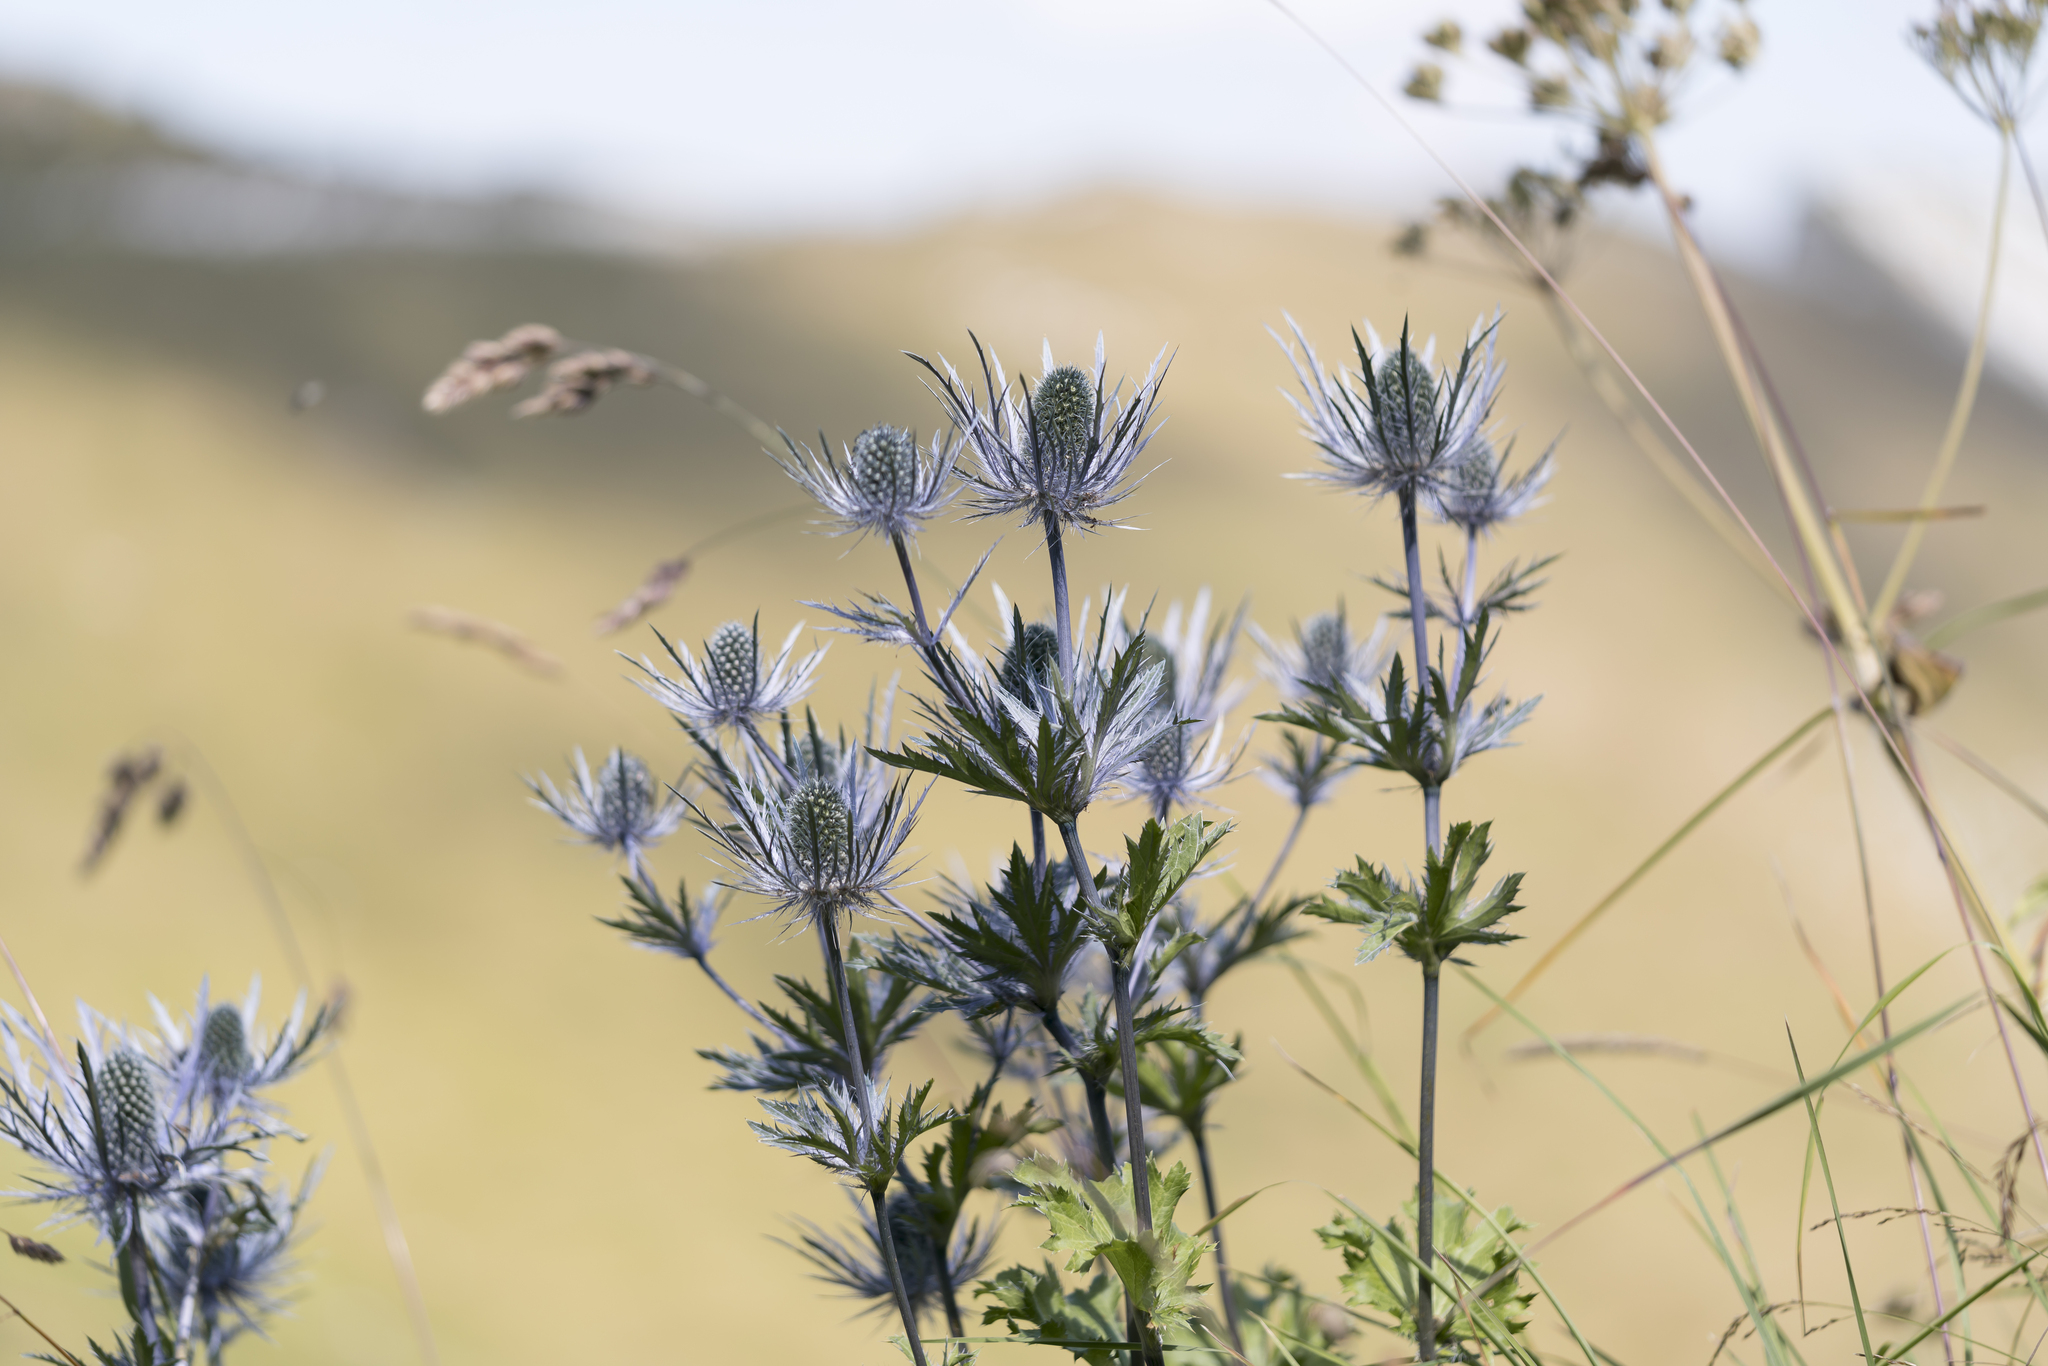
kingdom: Plantae
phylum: Tracheophyta
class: Magnoliopsida
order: Apiales
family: Apiaceae
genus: Eryngium
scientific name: Eryngium alpinum
